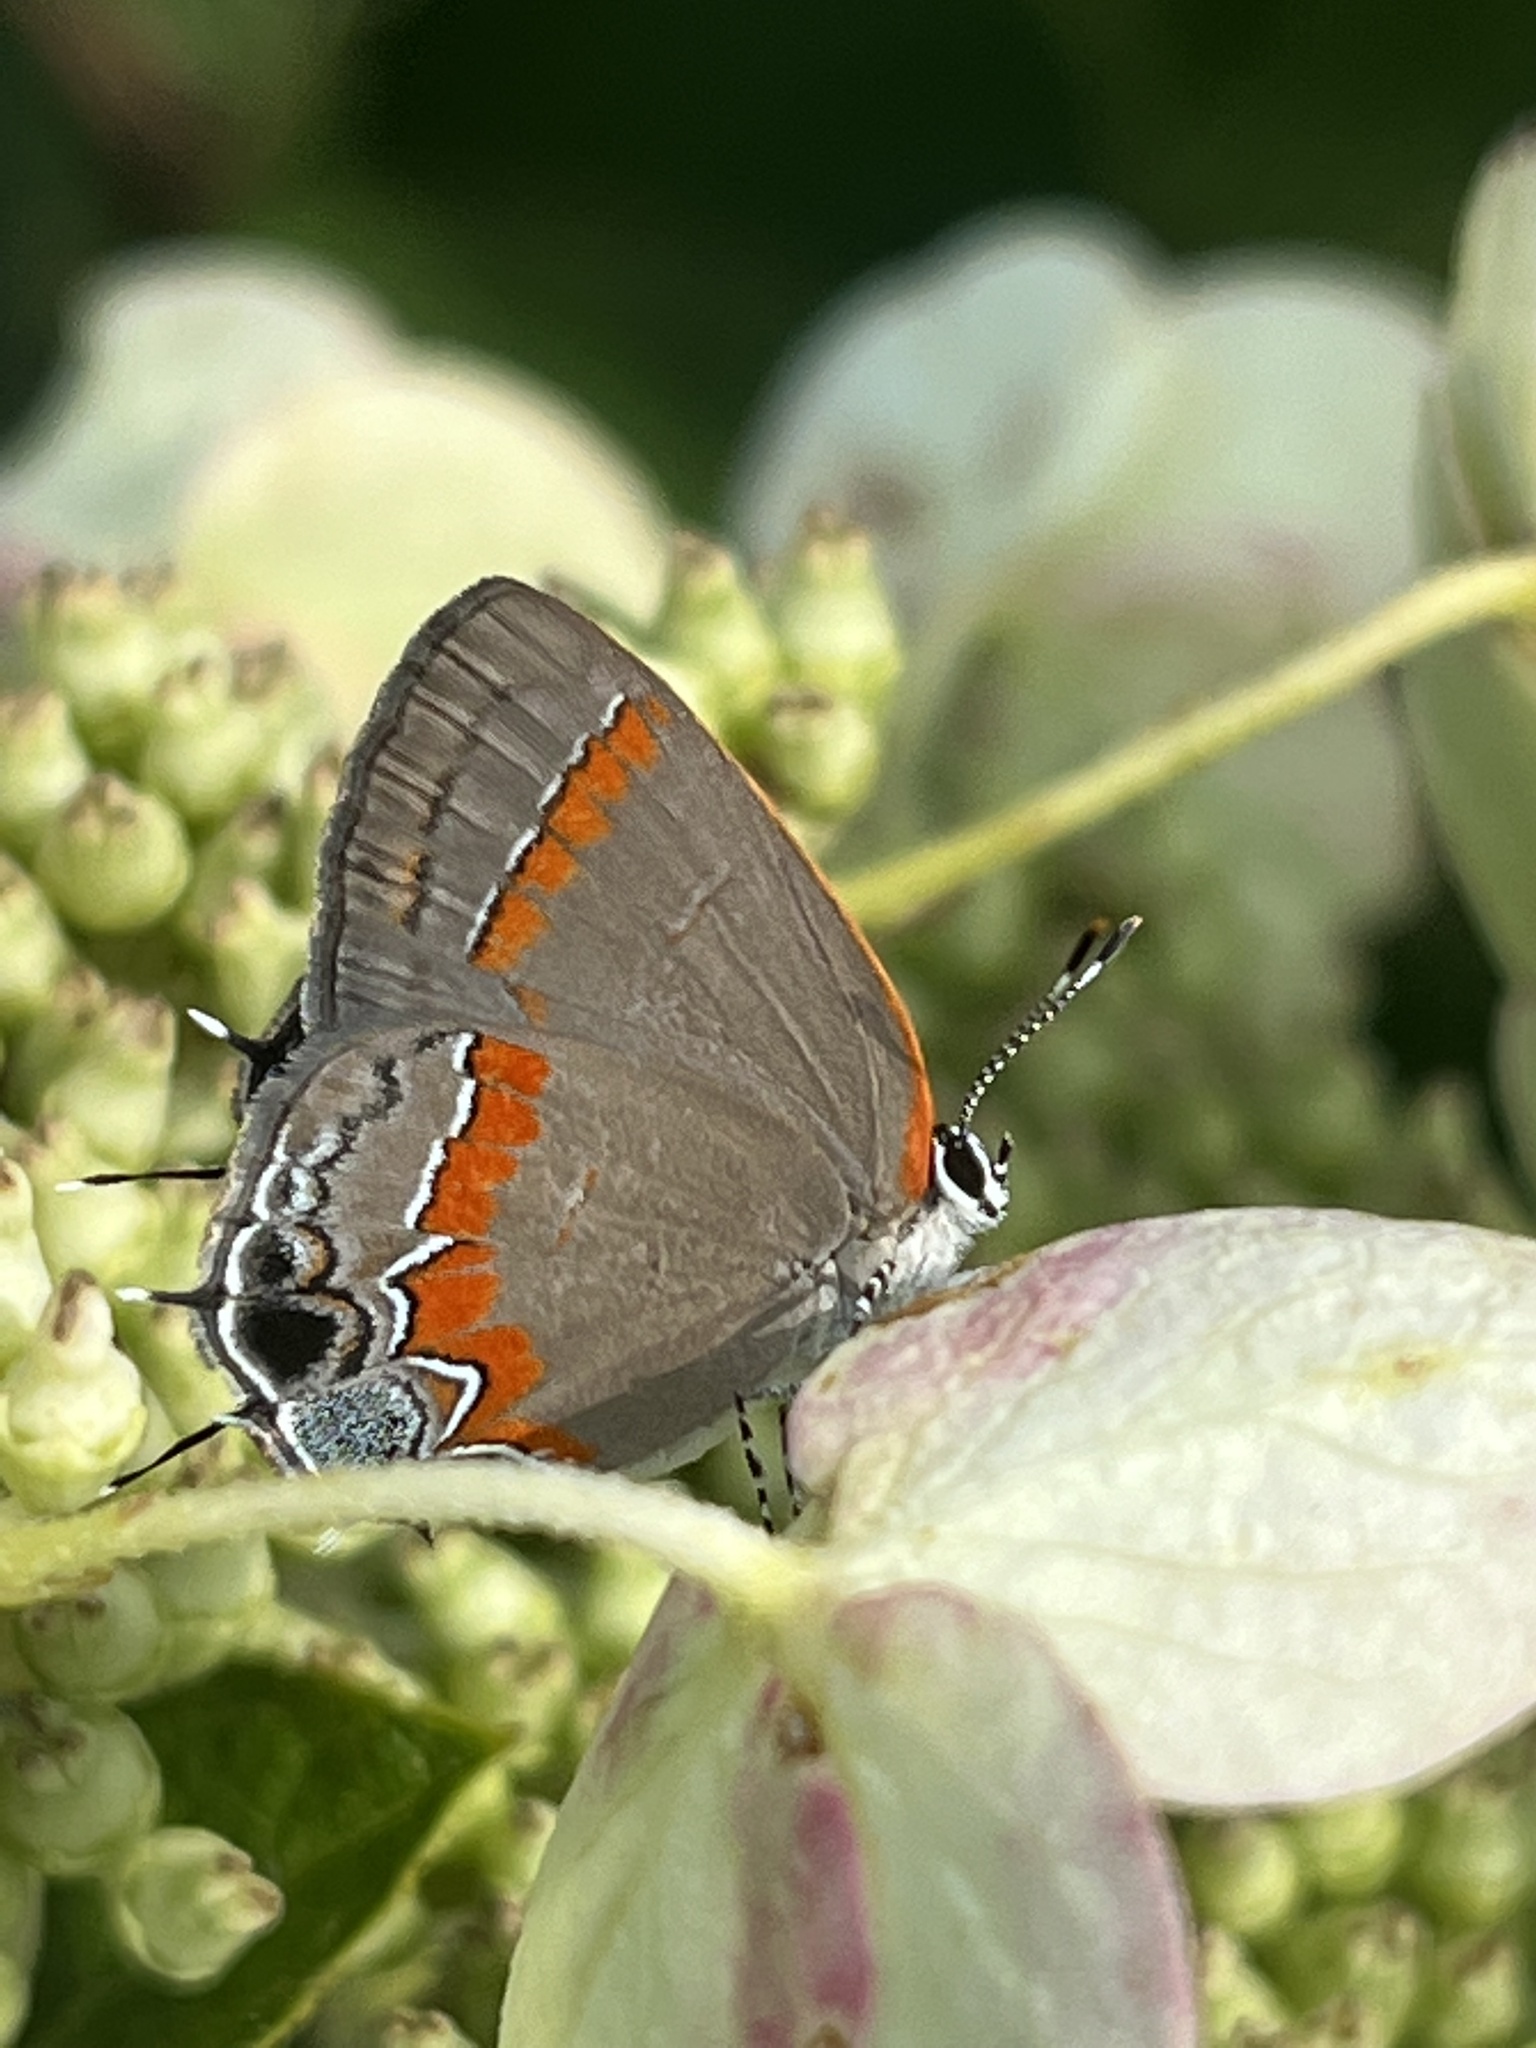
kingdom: Animalia
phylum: Arthropoda
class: Insecta
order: Lepidoptera
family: Lycaenidae
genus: Calycopis
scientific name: Calycopis cecrops
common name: Red-banded hairstreak
